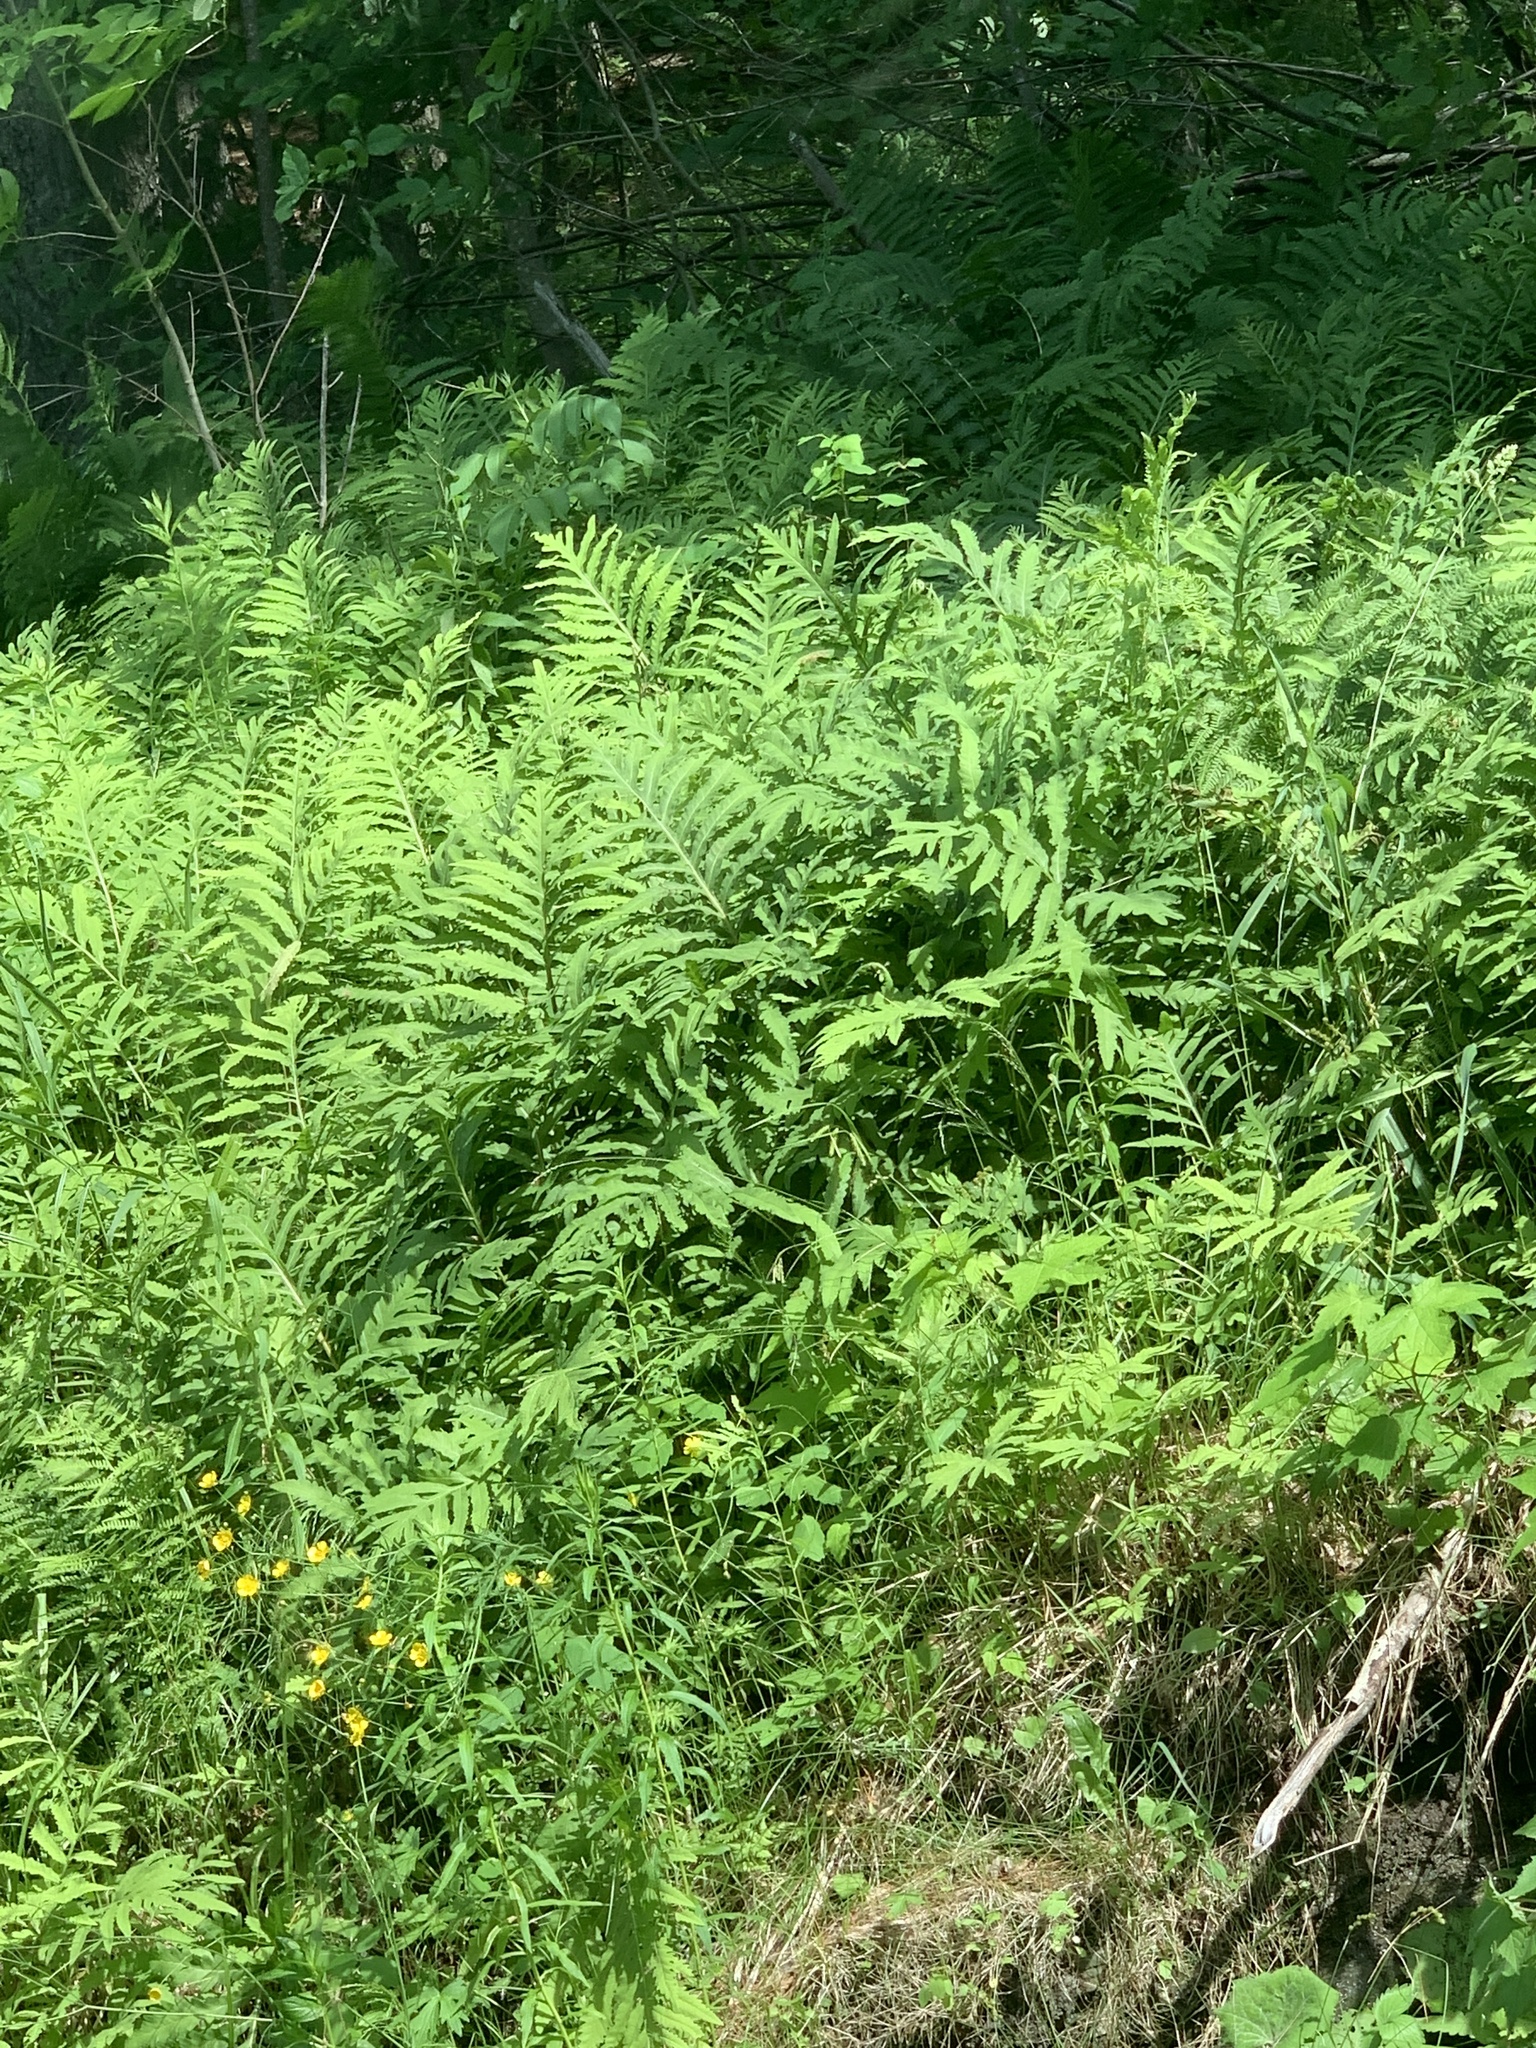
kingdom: Plantae
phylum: Tracheophyta
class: Polypodiopsida
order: Polypodiales
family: Onocleaceae
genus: Onoclea
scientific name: Onoclea sensibilis
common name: Sensitive fern
